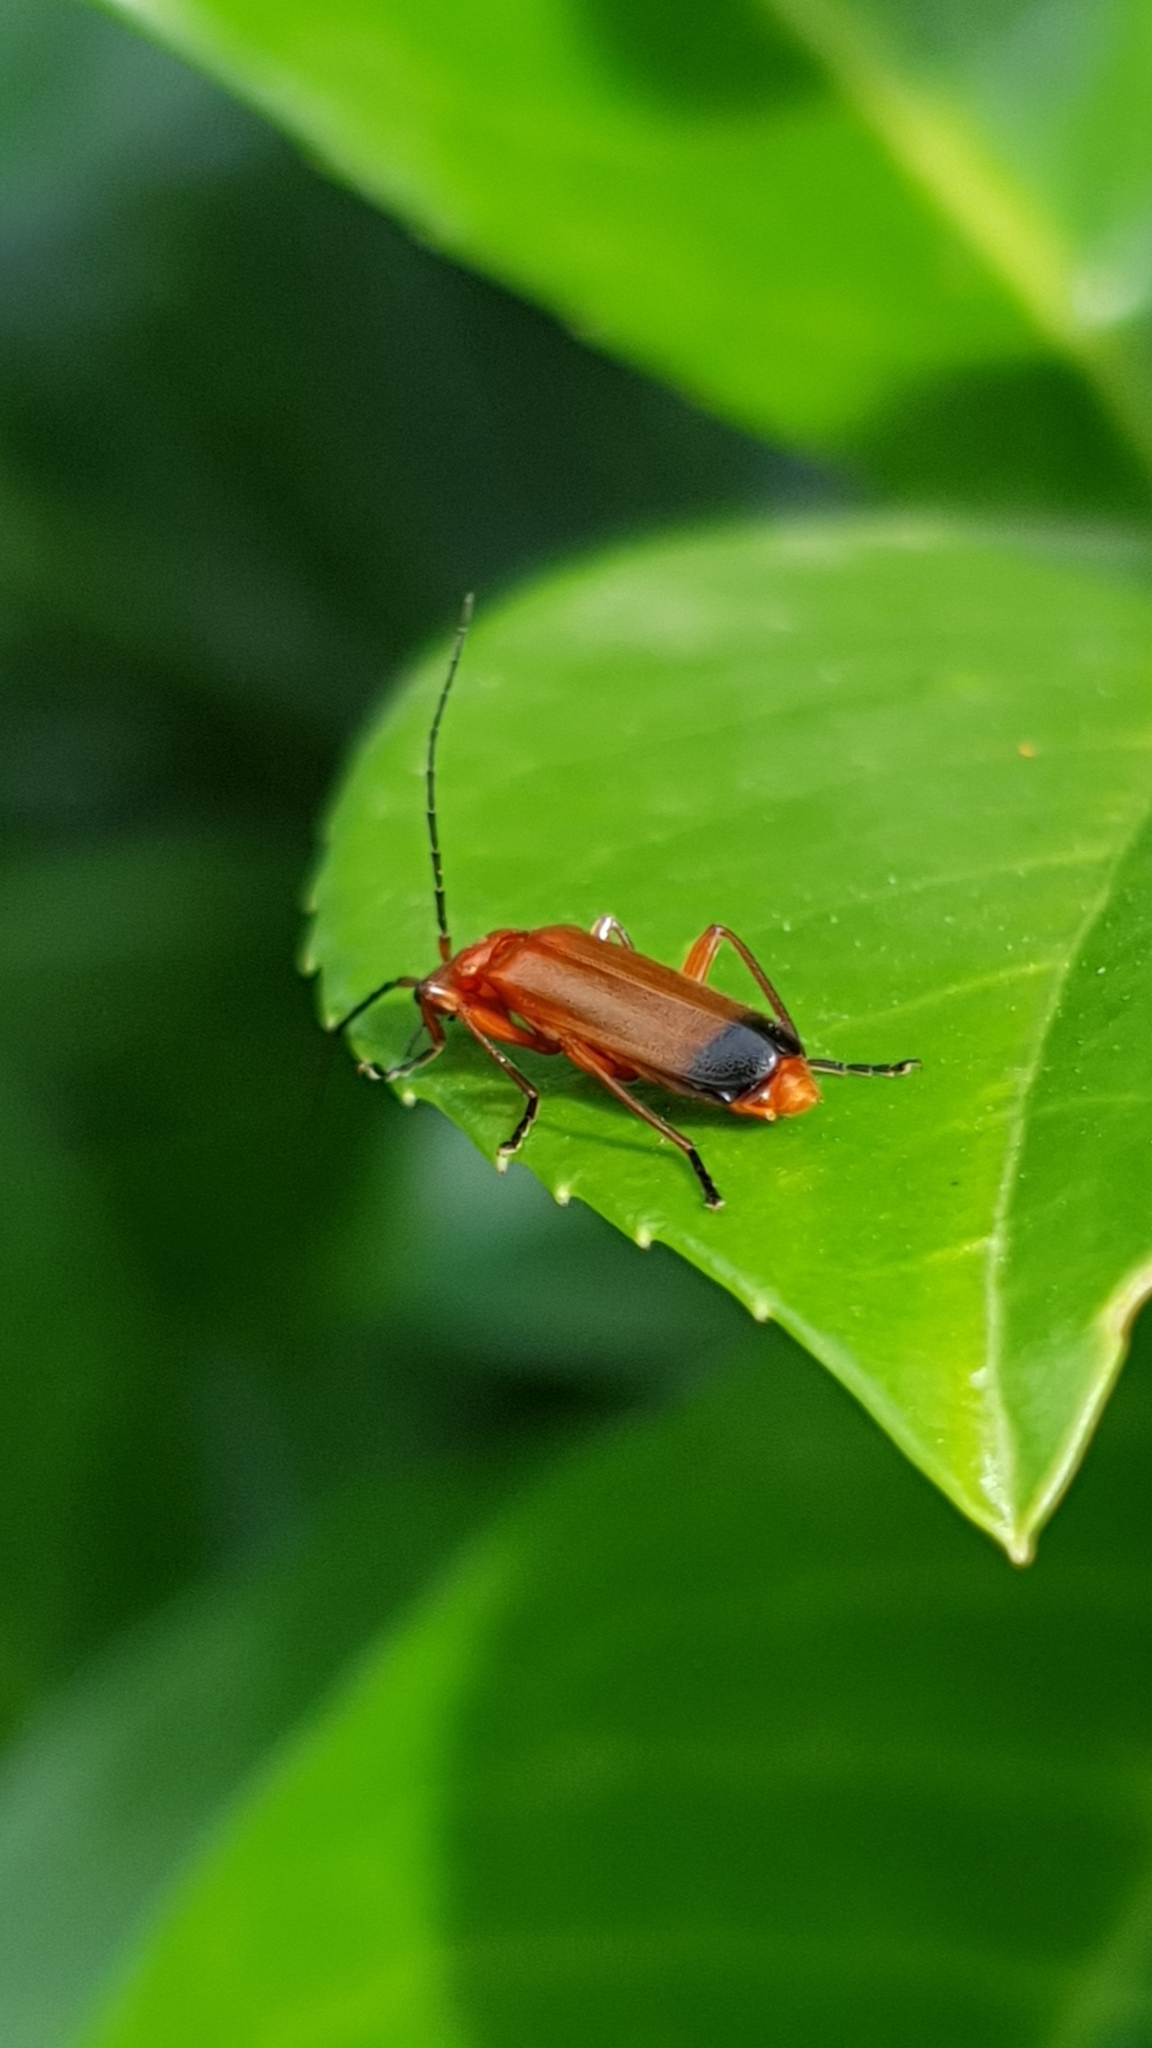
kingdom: Animalia
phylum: Arthropoda
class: Insecta
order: Coleoptera
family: Cantharidae
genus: Rhagonycha
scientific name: Rhagonycha fulva
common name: Common red soldier beetle
